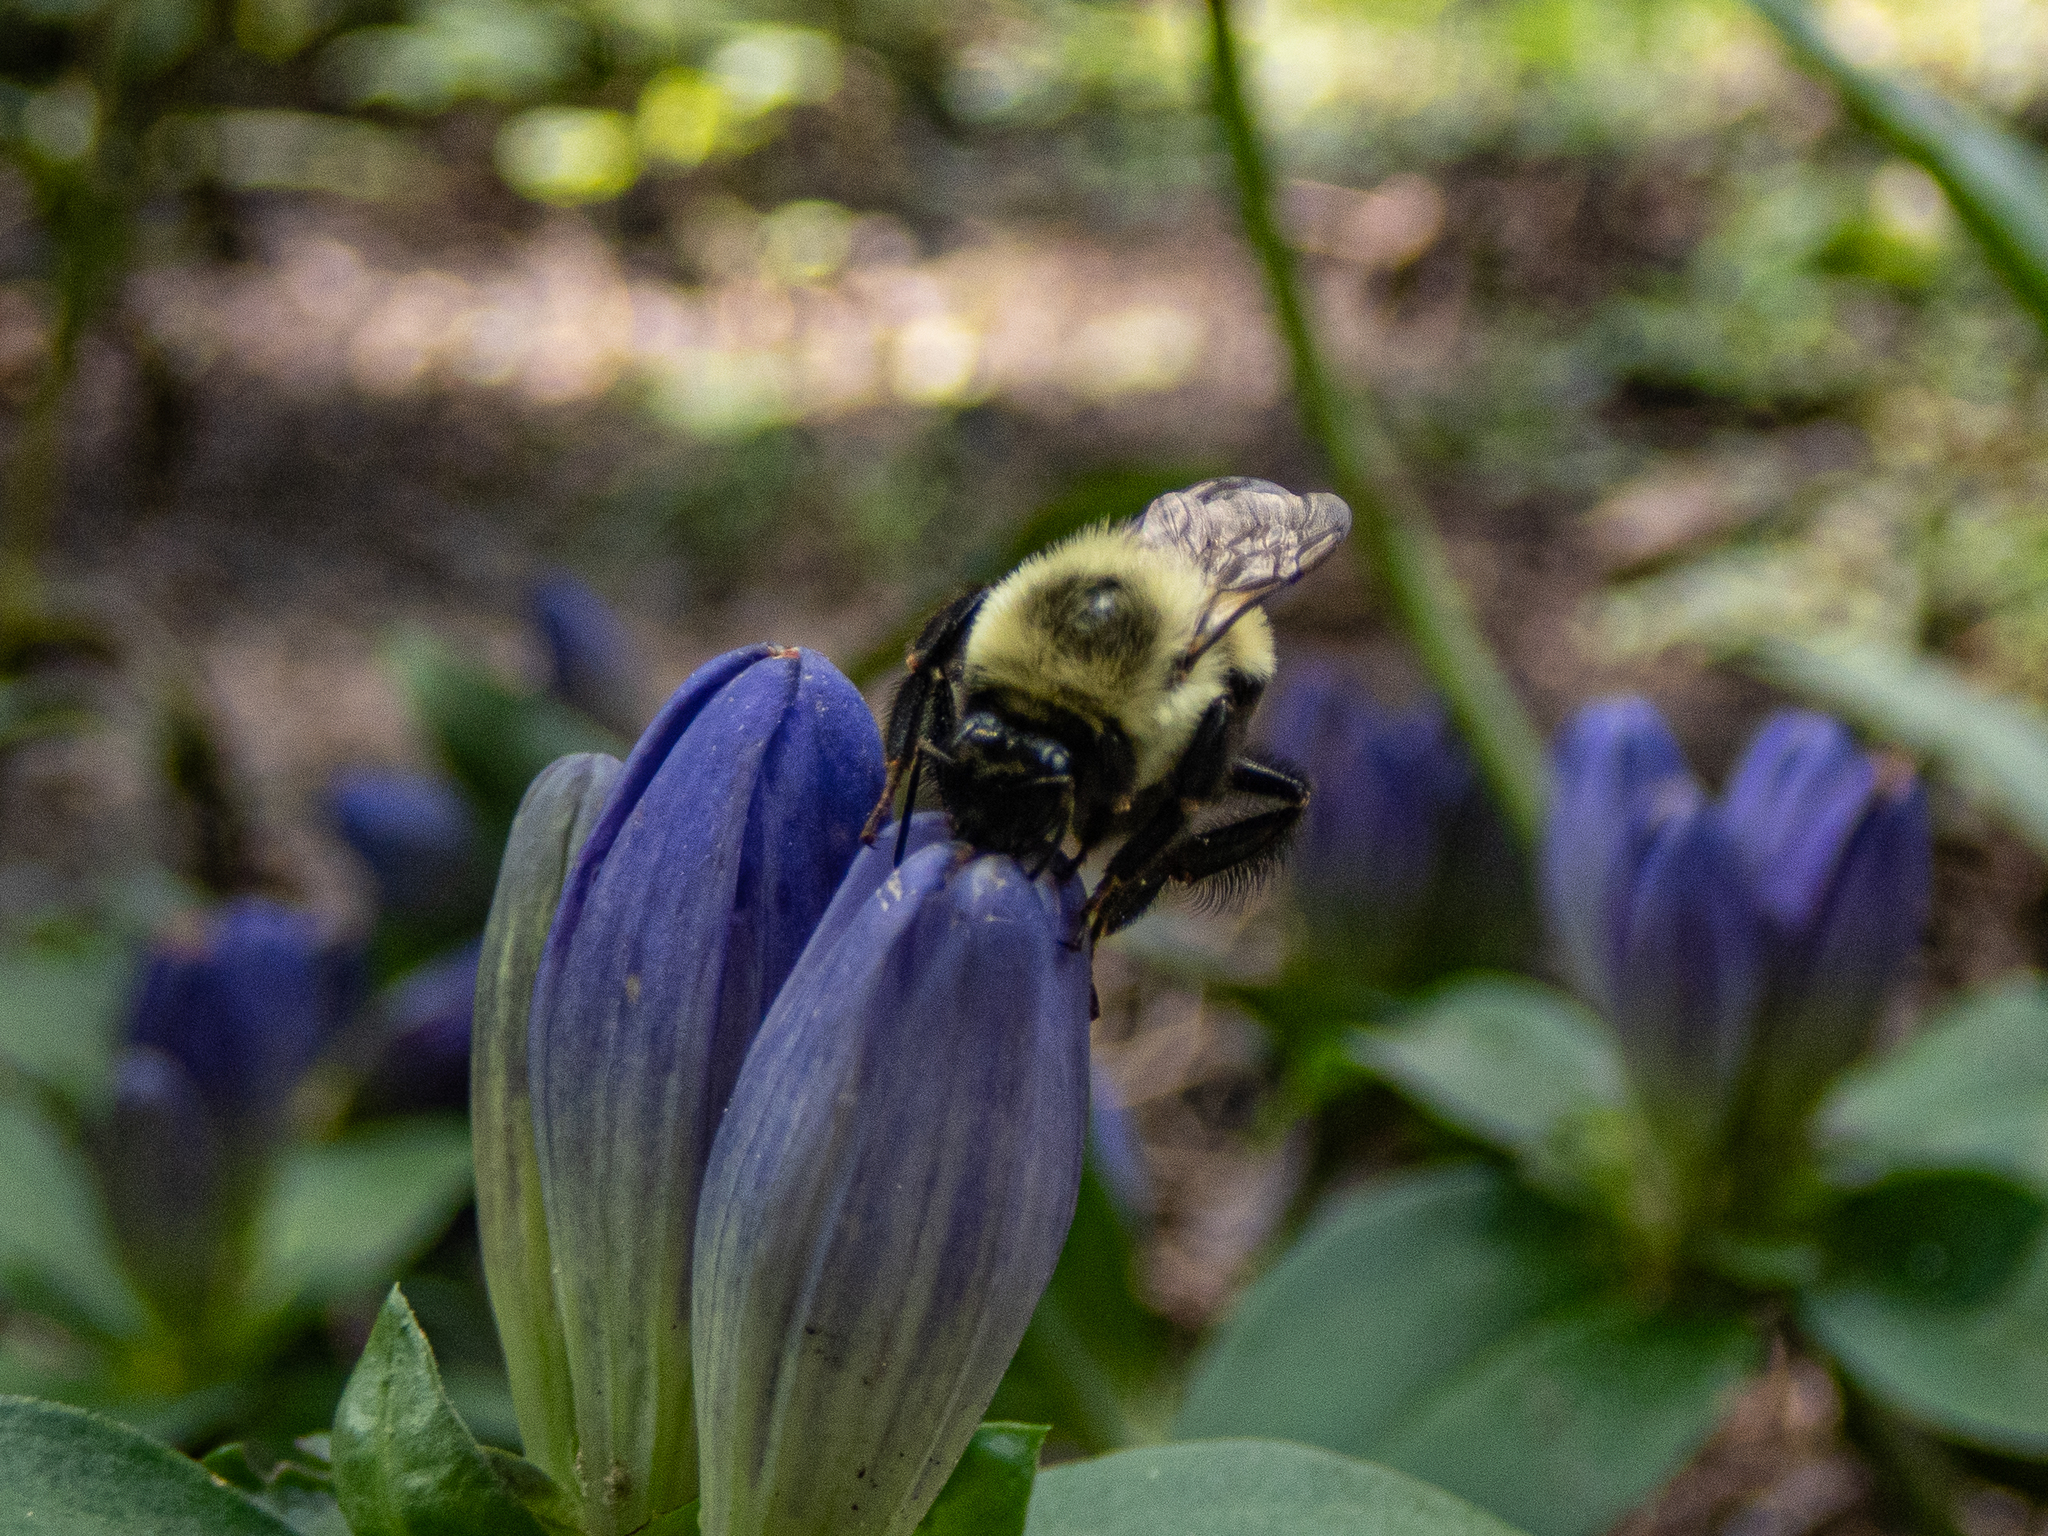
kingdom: Animalia
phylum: Arthropoda
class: Insecta
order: Hymenoptera
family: Apidae
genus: Bombus
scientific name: Bombus impatiens
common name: Common eastern bumble bee
